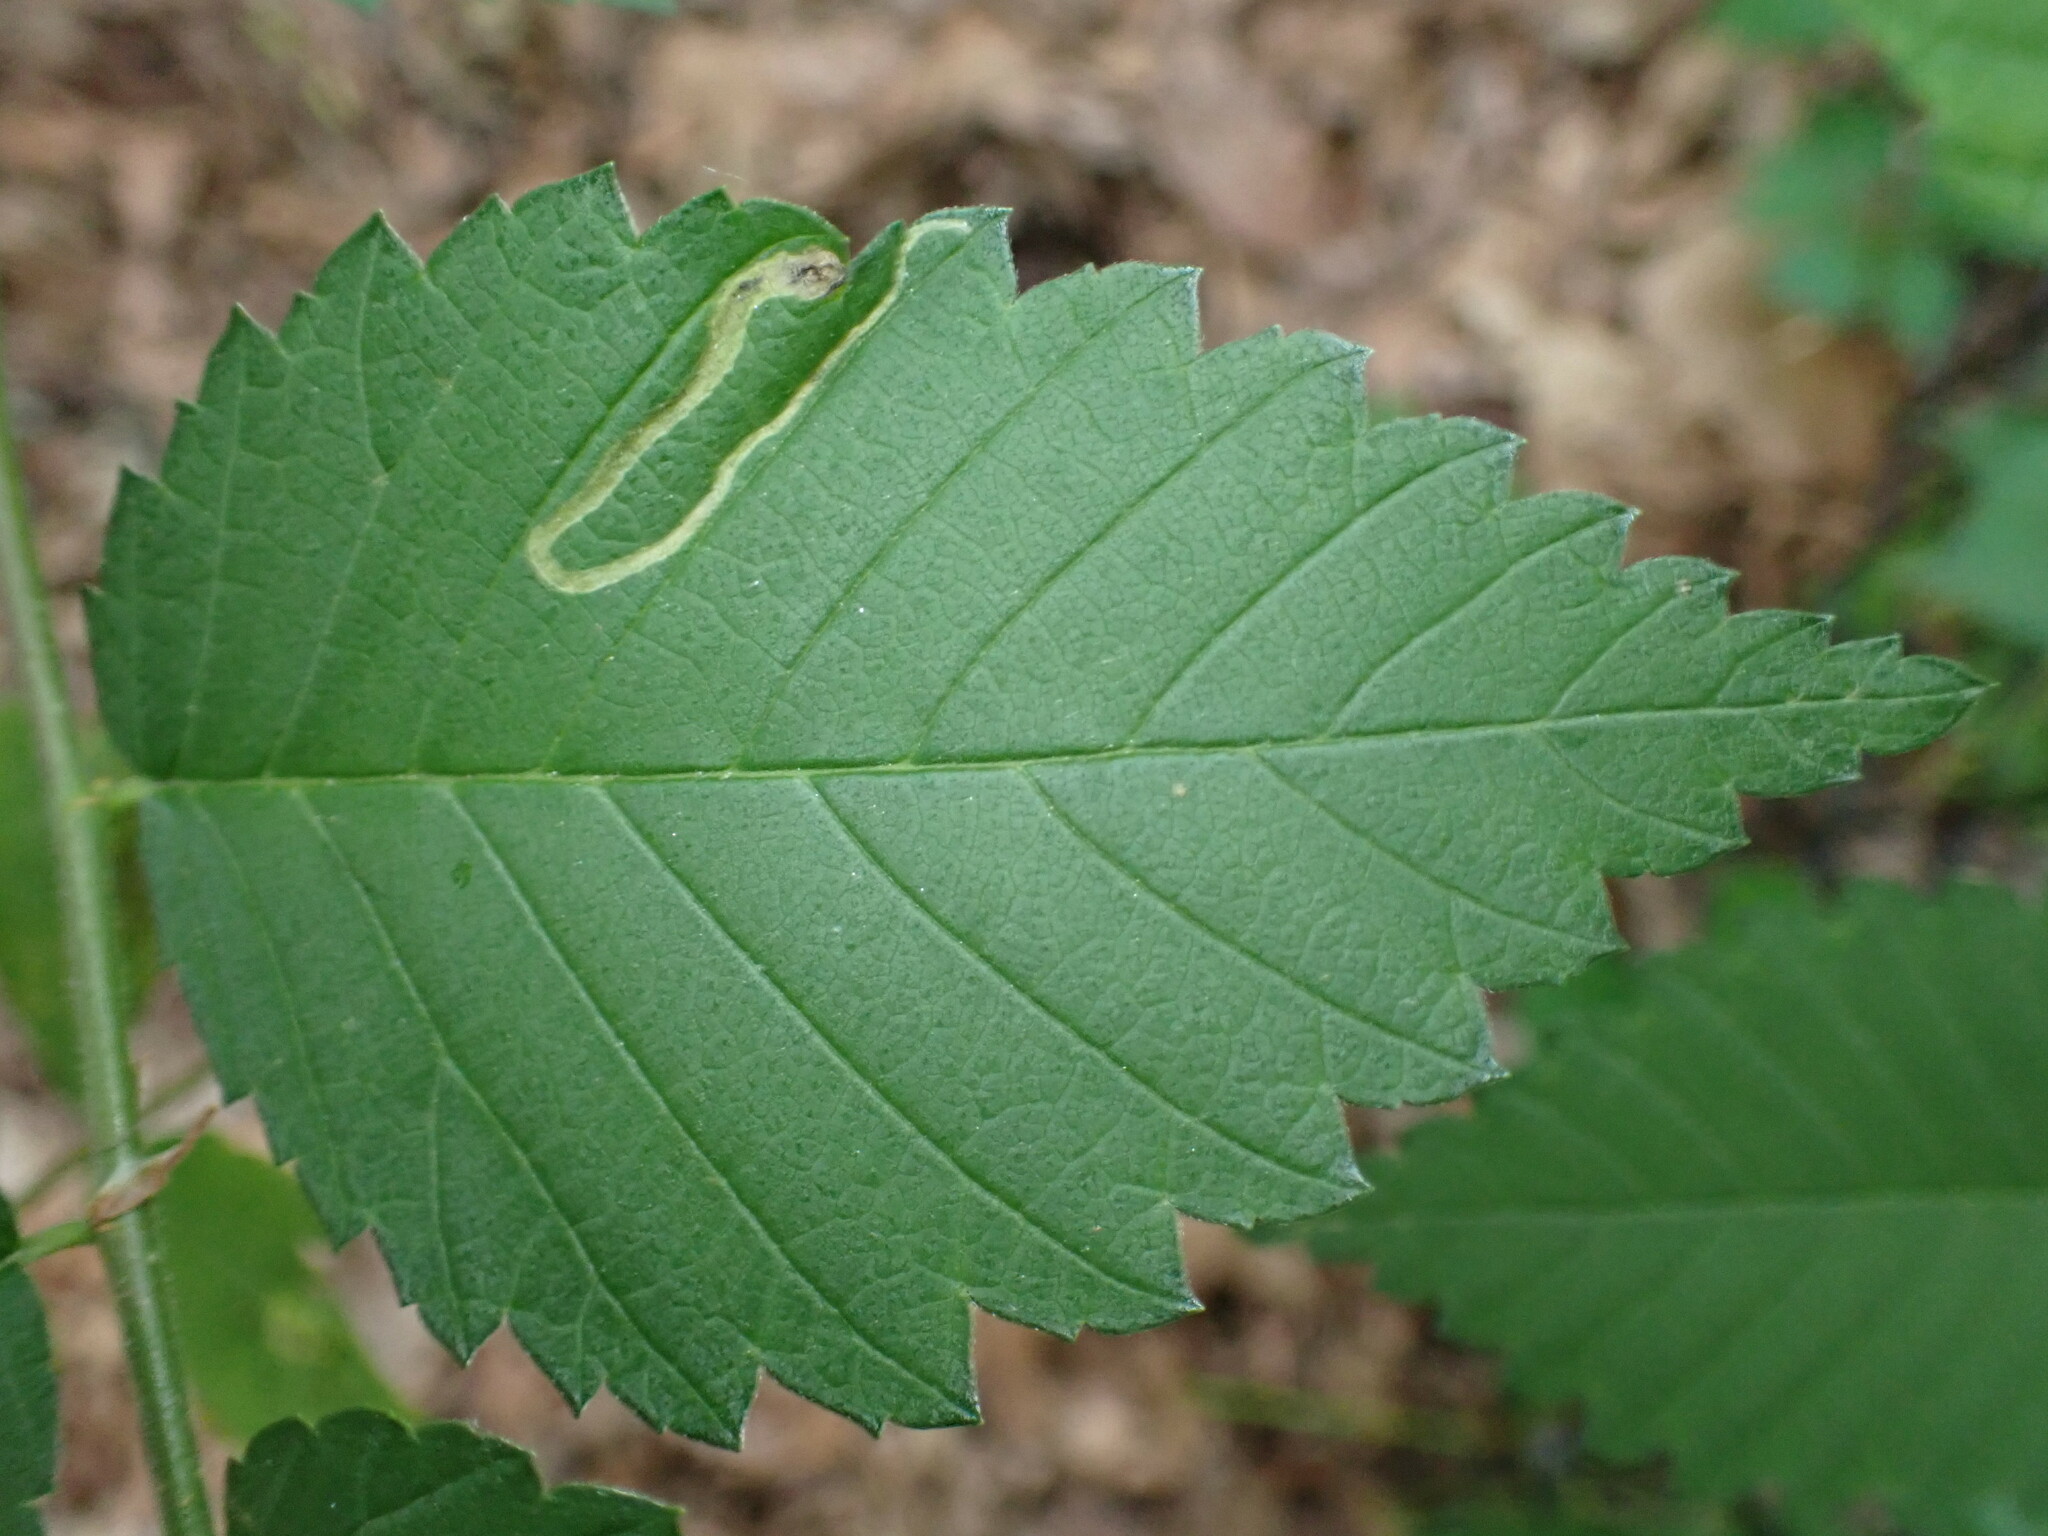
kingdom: Animalia
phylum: Arthropoda
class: Insecta
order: Diptera
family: Agromyzidae
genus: Agromyza
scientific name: Agromyza aristata
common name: Elm agromyzid leafminer
